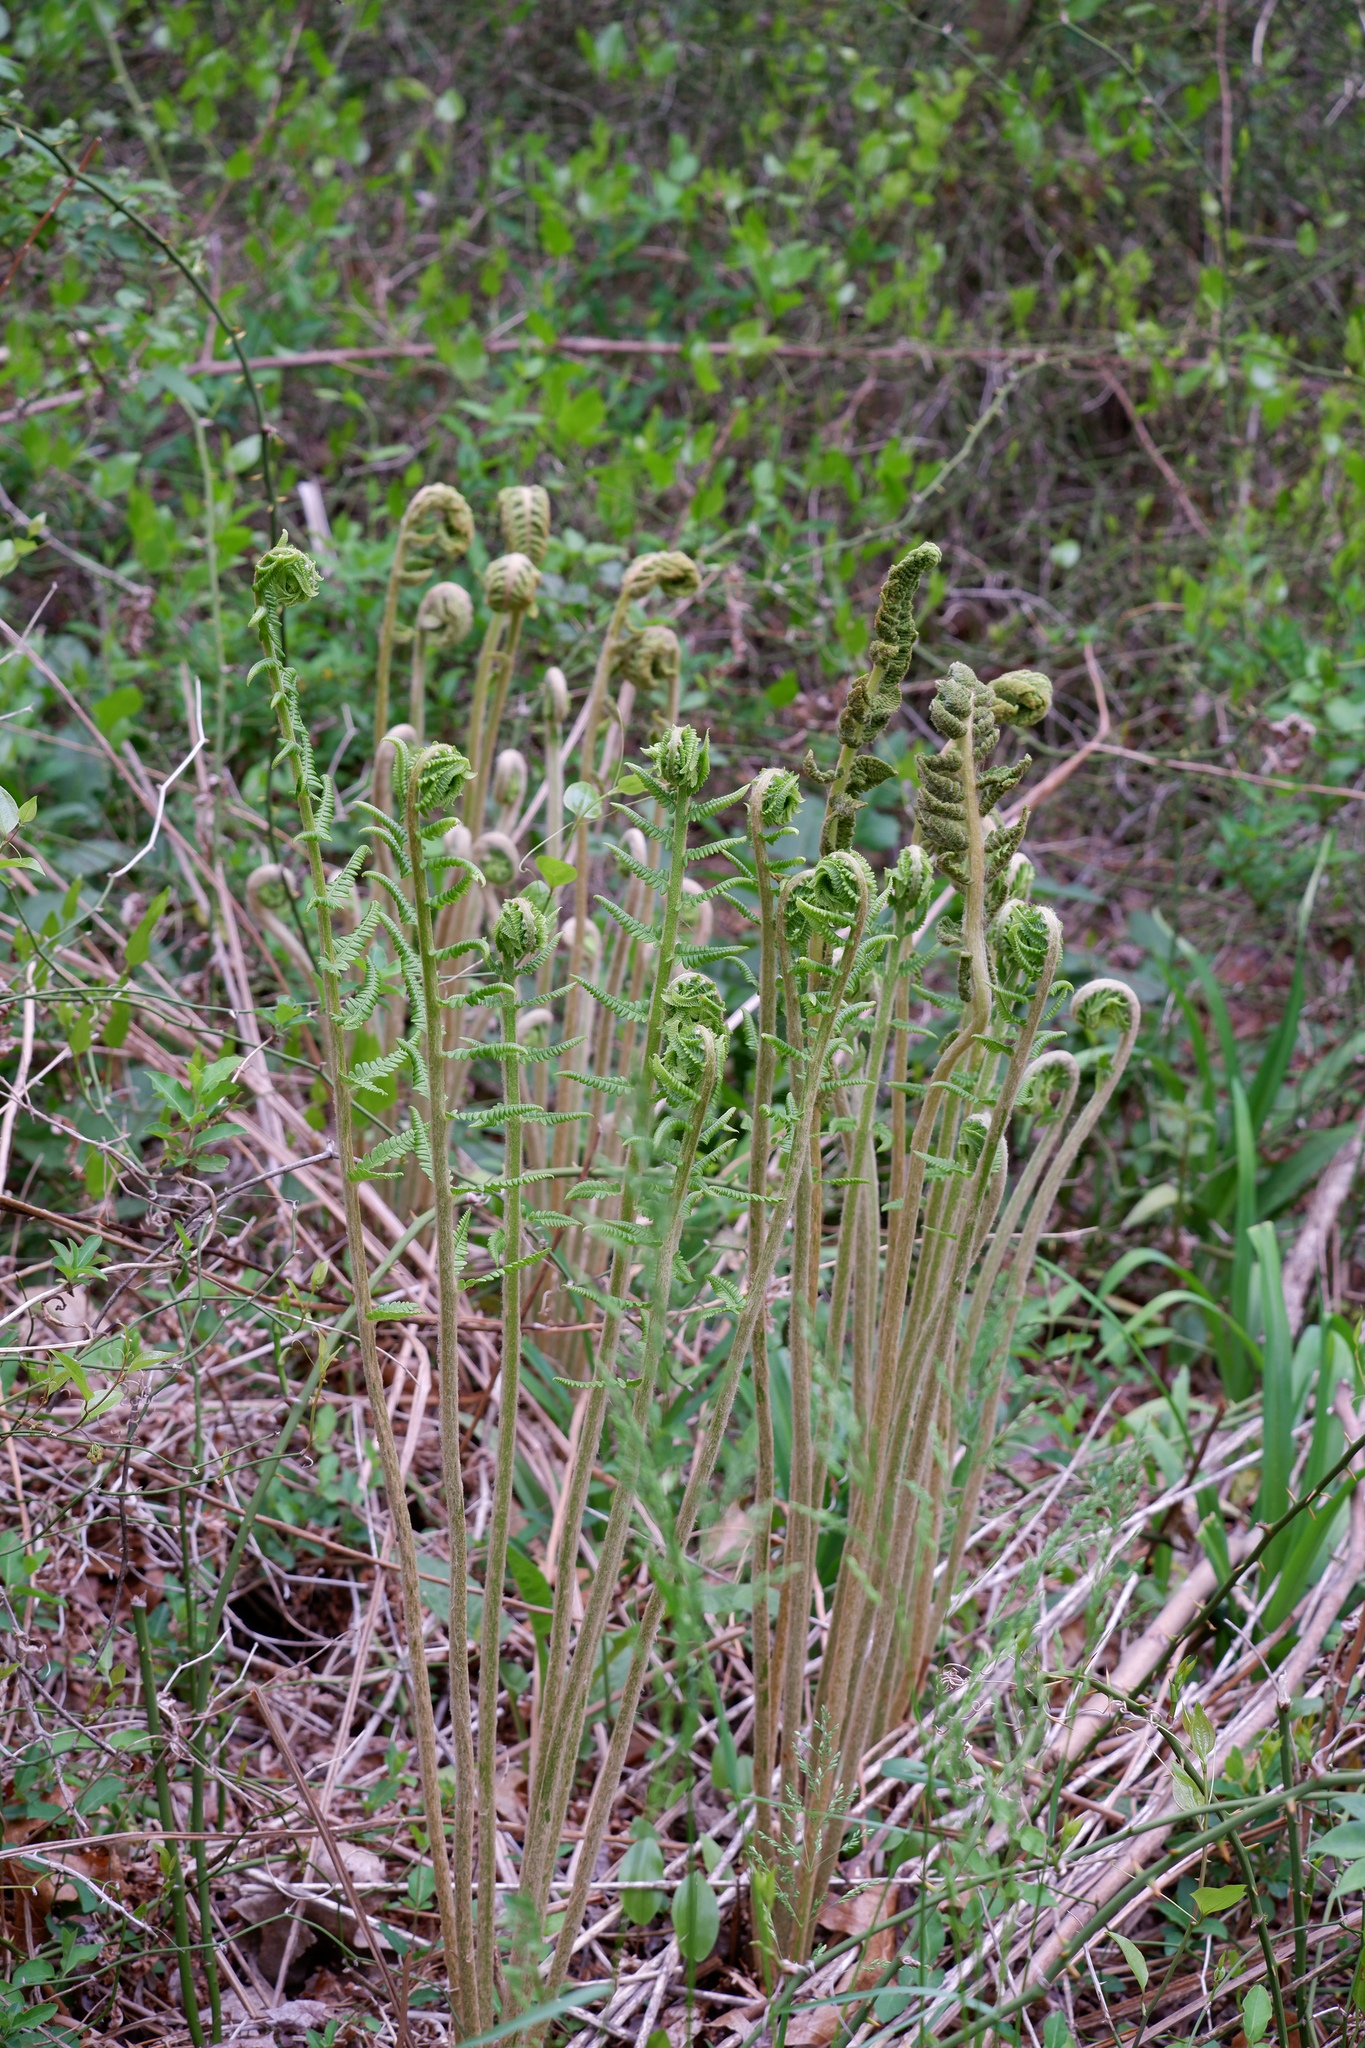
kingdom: Plantae
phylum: Tracheophyta
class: Polypodiopsida
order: Osmundales
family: Osmundaceae
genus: Osmundastrum
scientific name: Osmundastrum cinnamomeum
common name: Cinnamon fern
